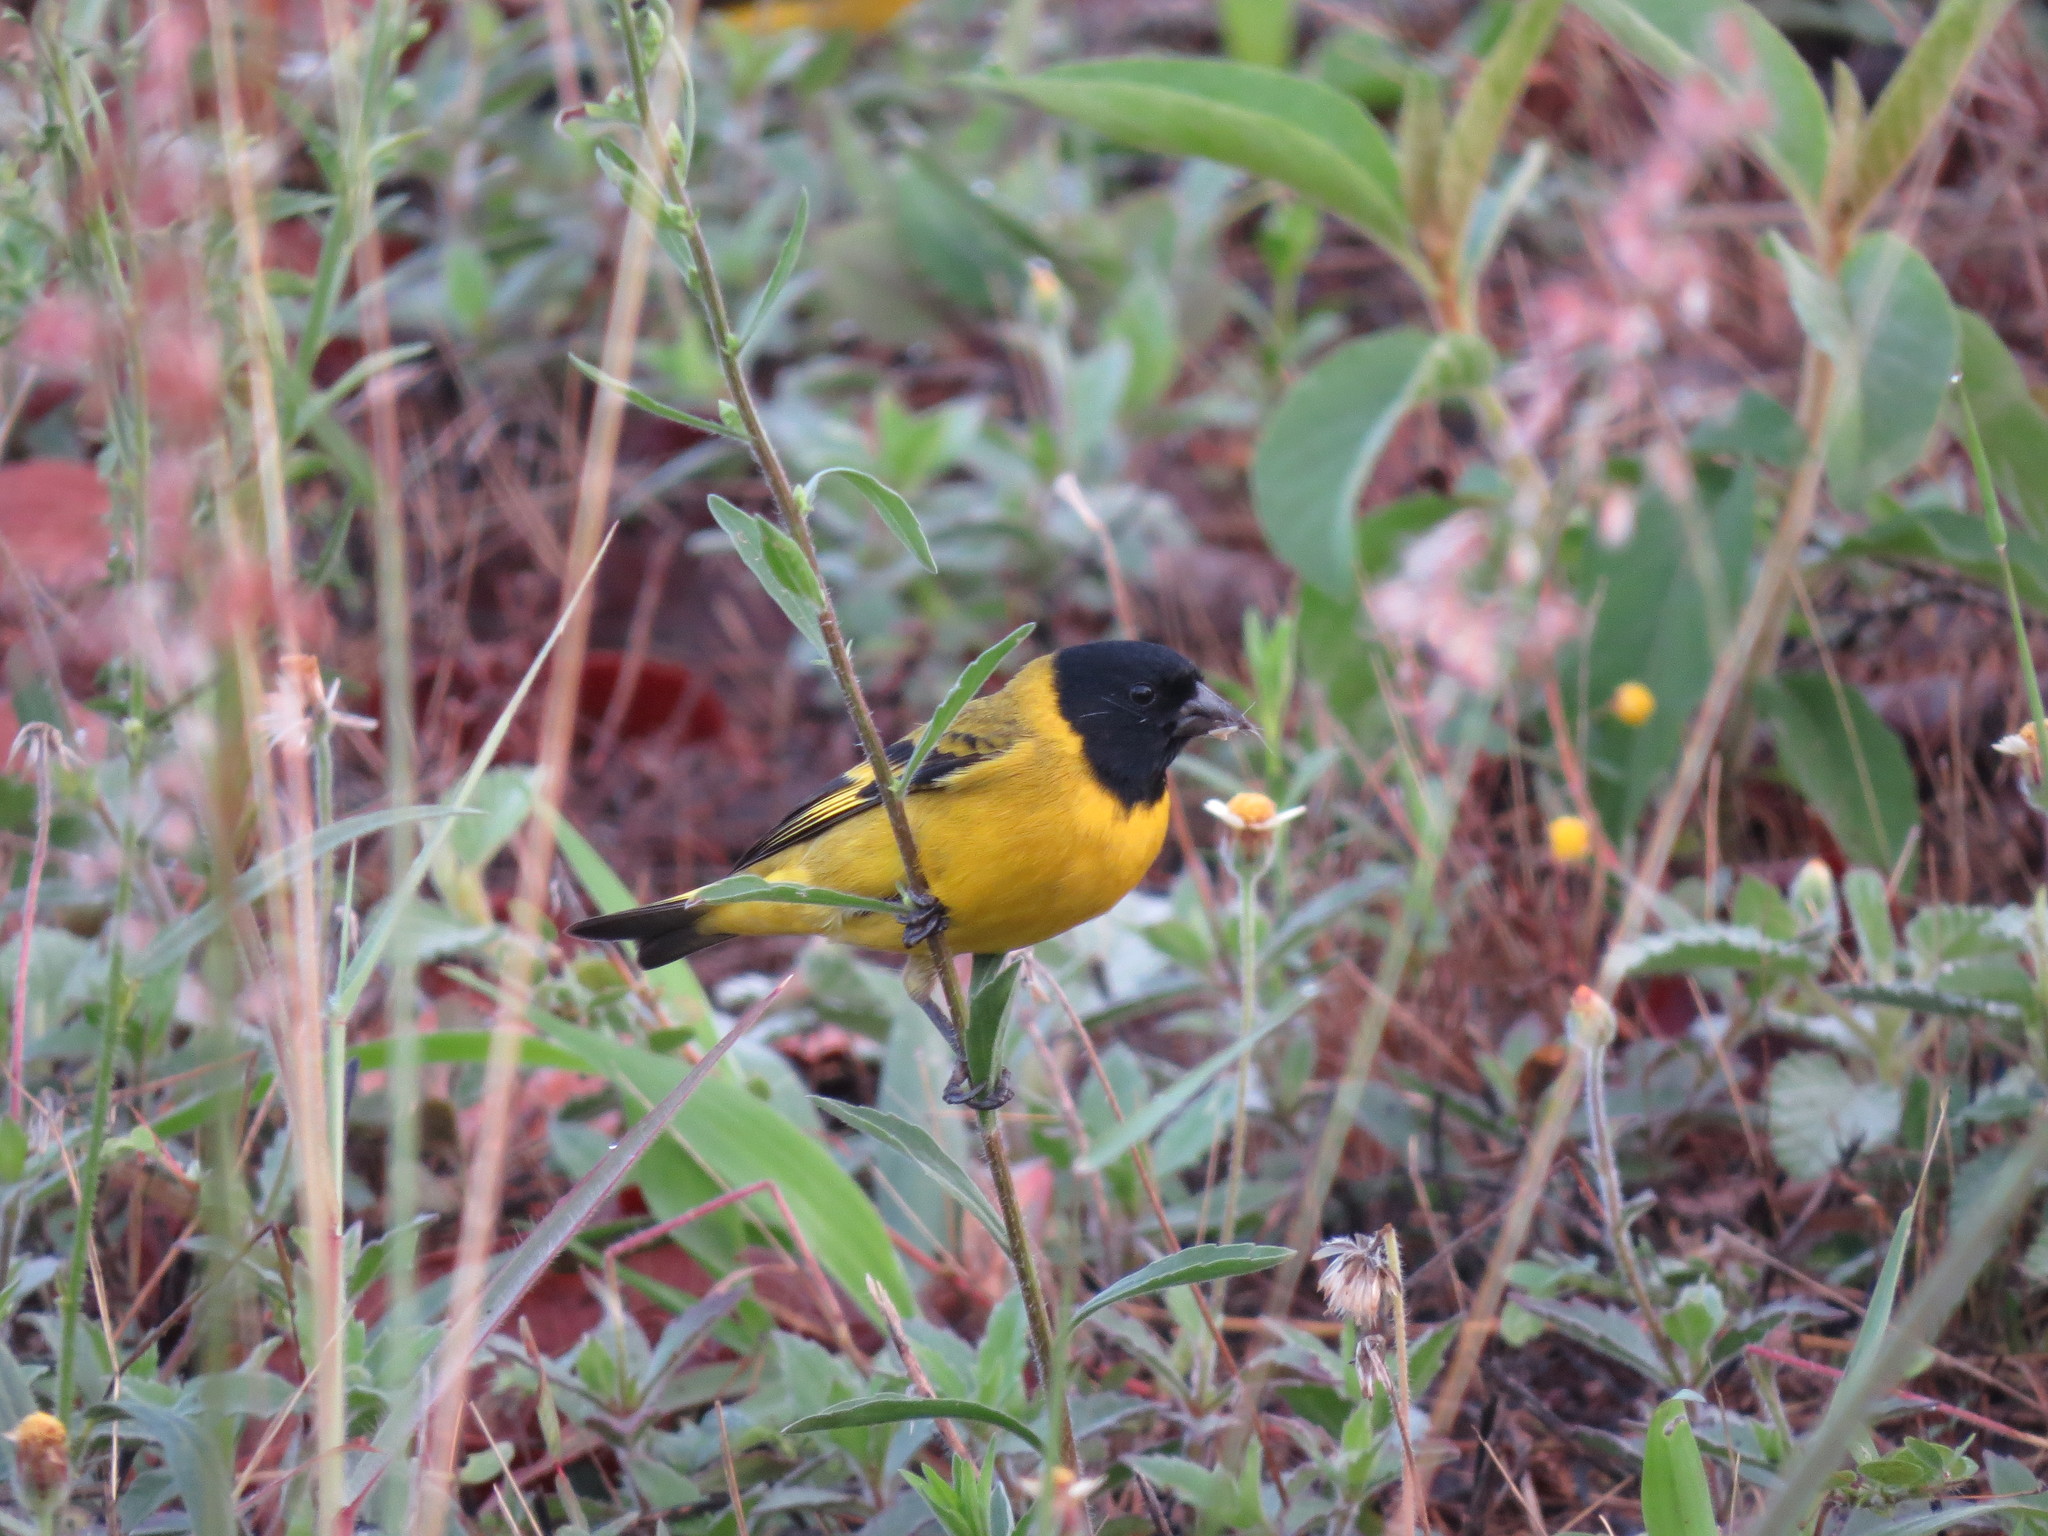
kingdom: Animalia
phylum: Chordata
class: Aves
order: Passeriformes
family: Fringillidae
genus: Spinus
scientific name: Spinus magellanicus
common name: Hooded siskin
